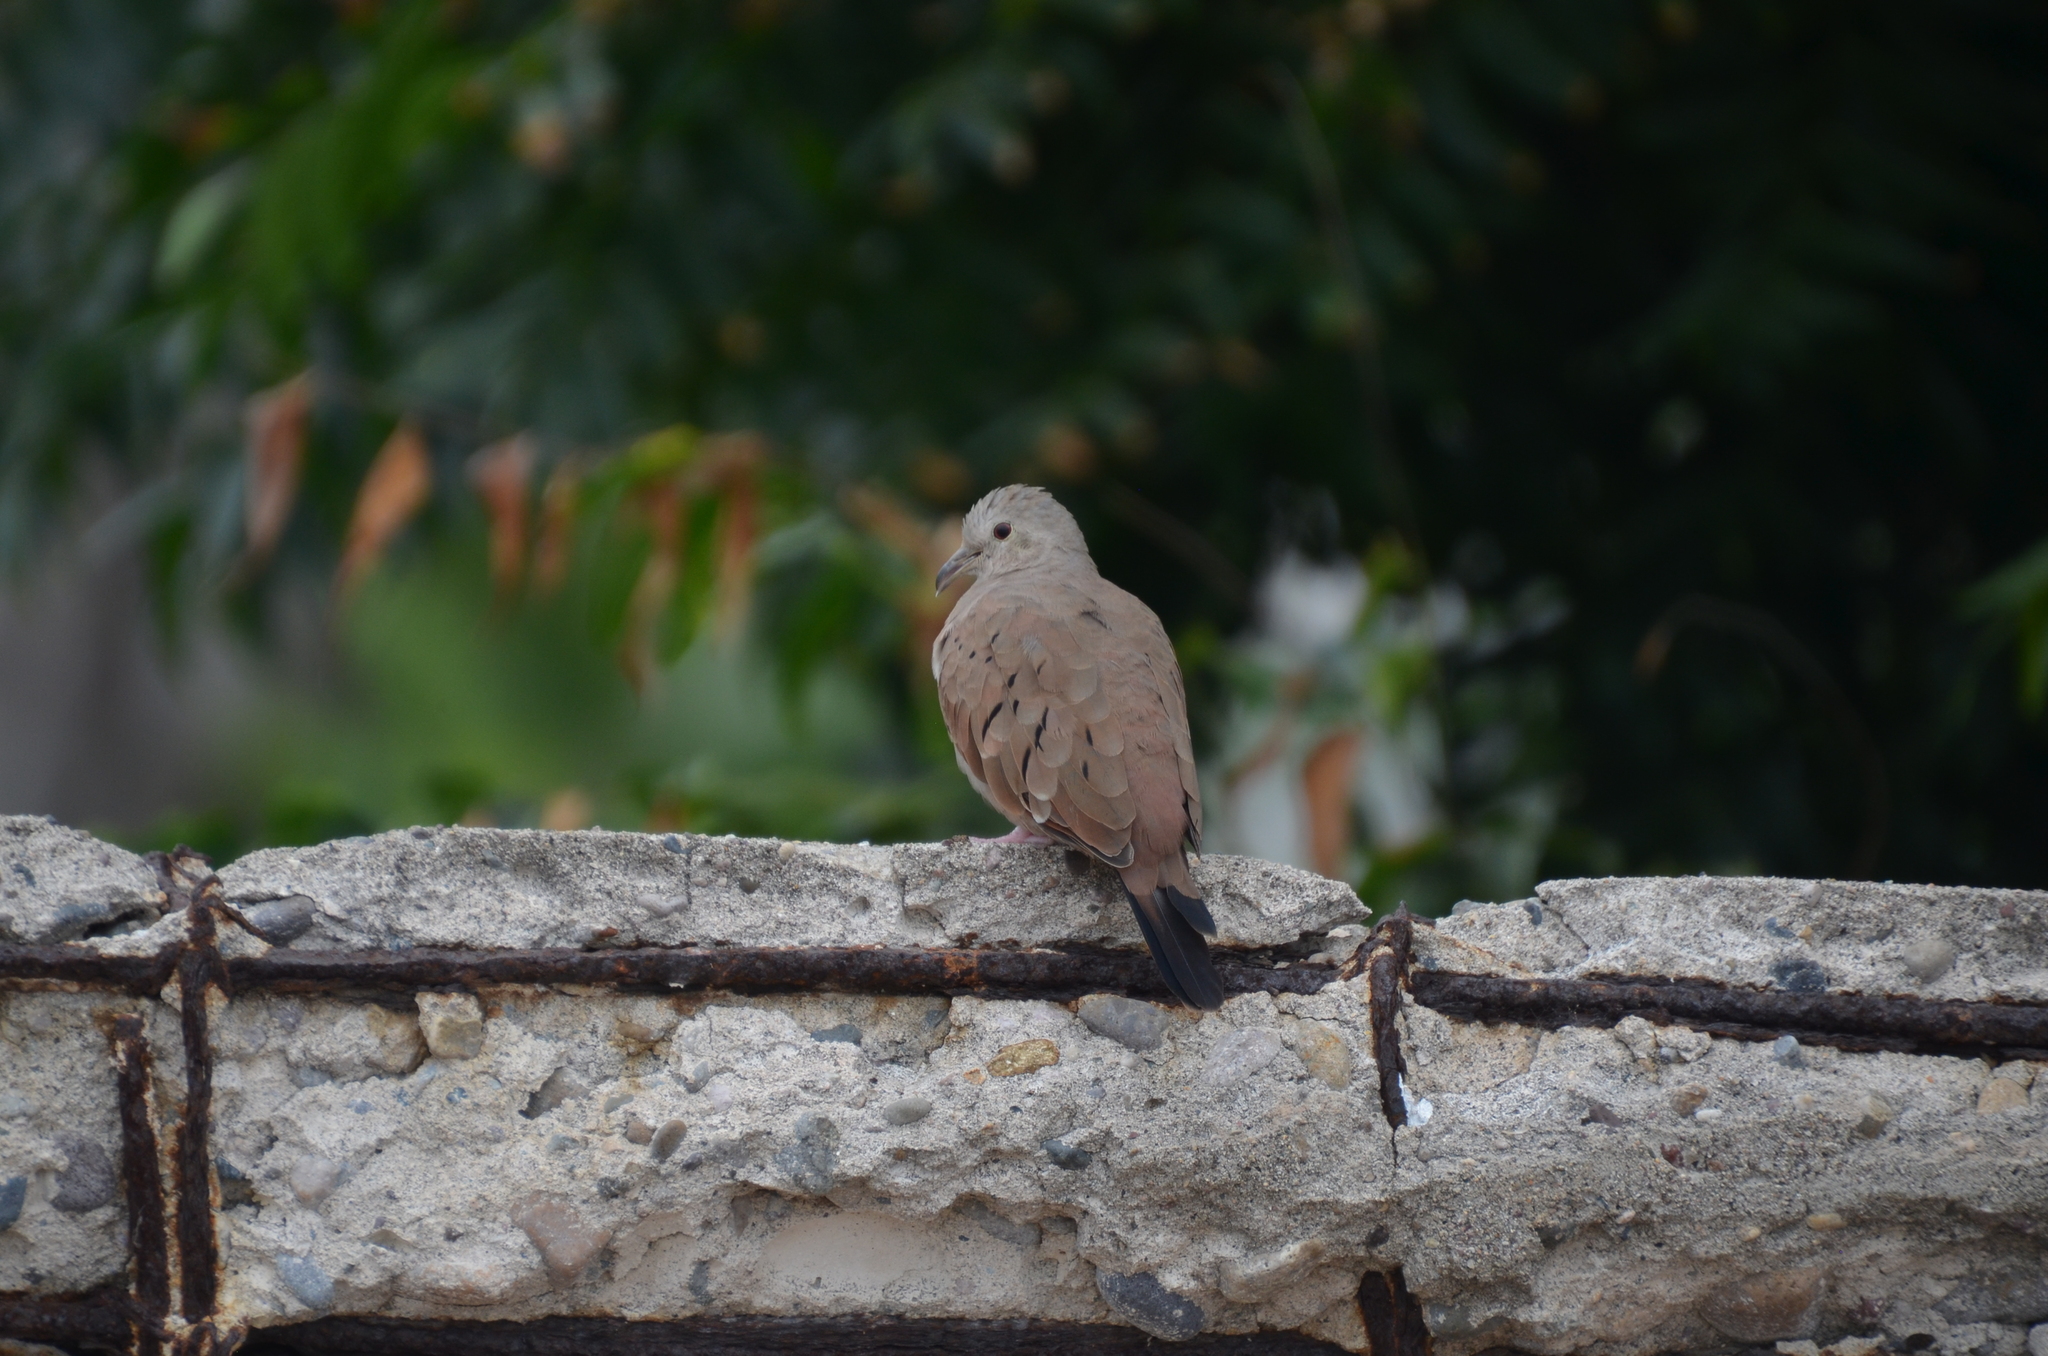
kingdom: Animalia
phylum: Chordata
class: Aves
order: Columbiformes
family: Columbidae
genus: Columbina
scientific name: Columbina talpacoti
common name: Ruddy ground dove
